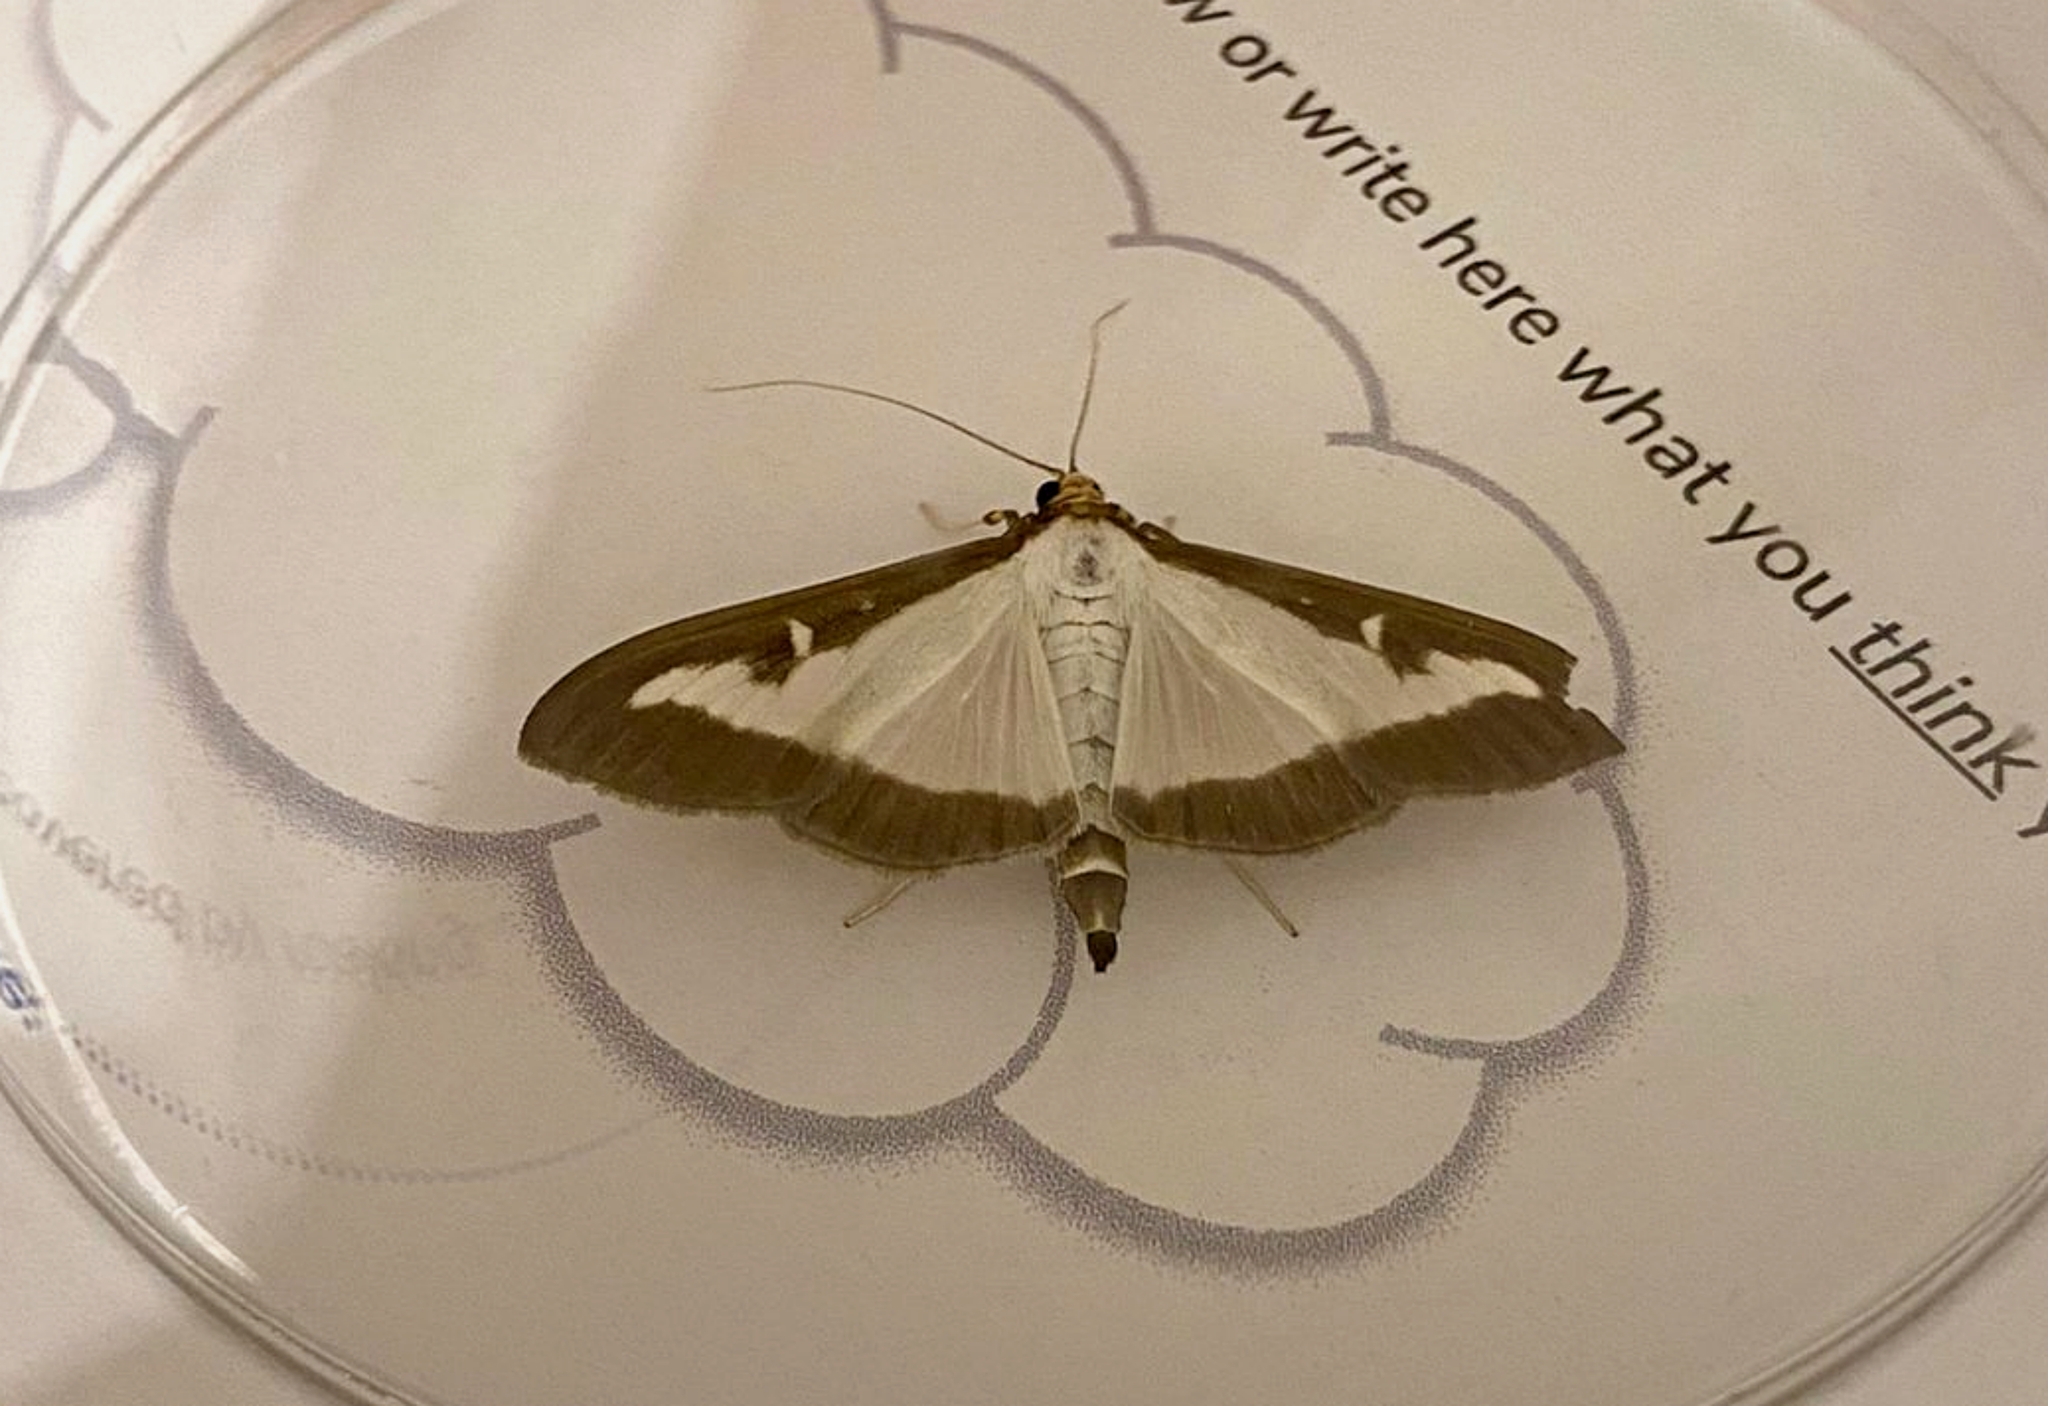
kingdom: Animalia
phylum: Arthropoda
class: Insecta
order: Lepidoptera
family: Crambidae
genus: Cydalima
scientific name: Cydalima perspectalis
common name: Box tree moth
